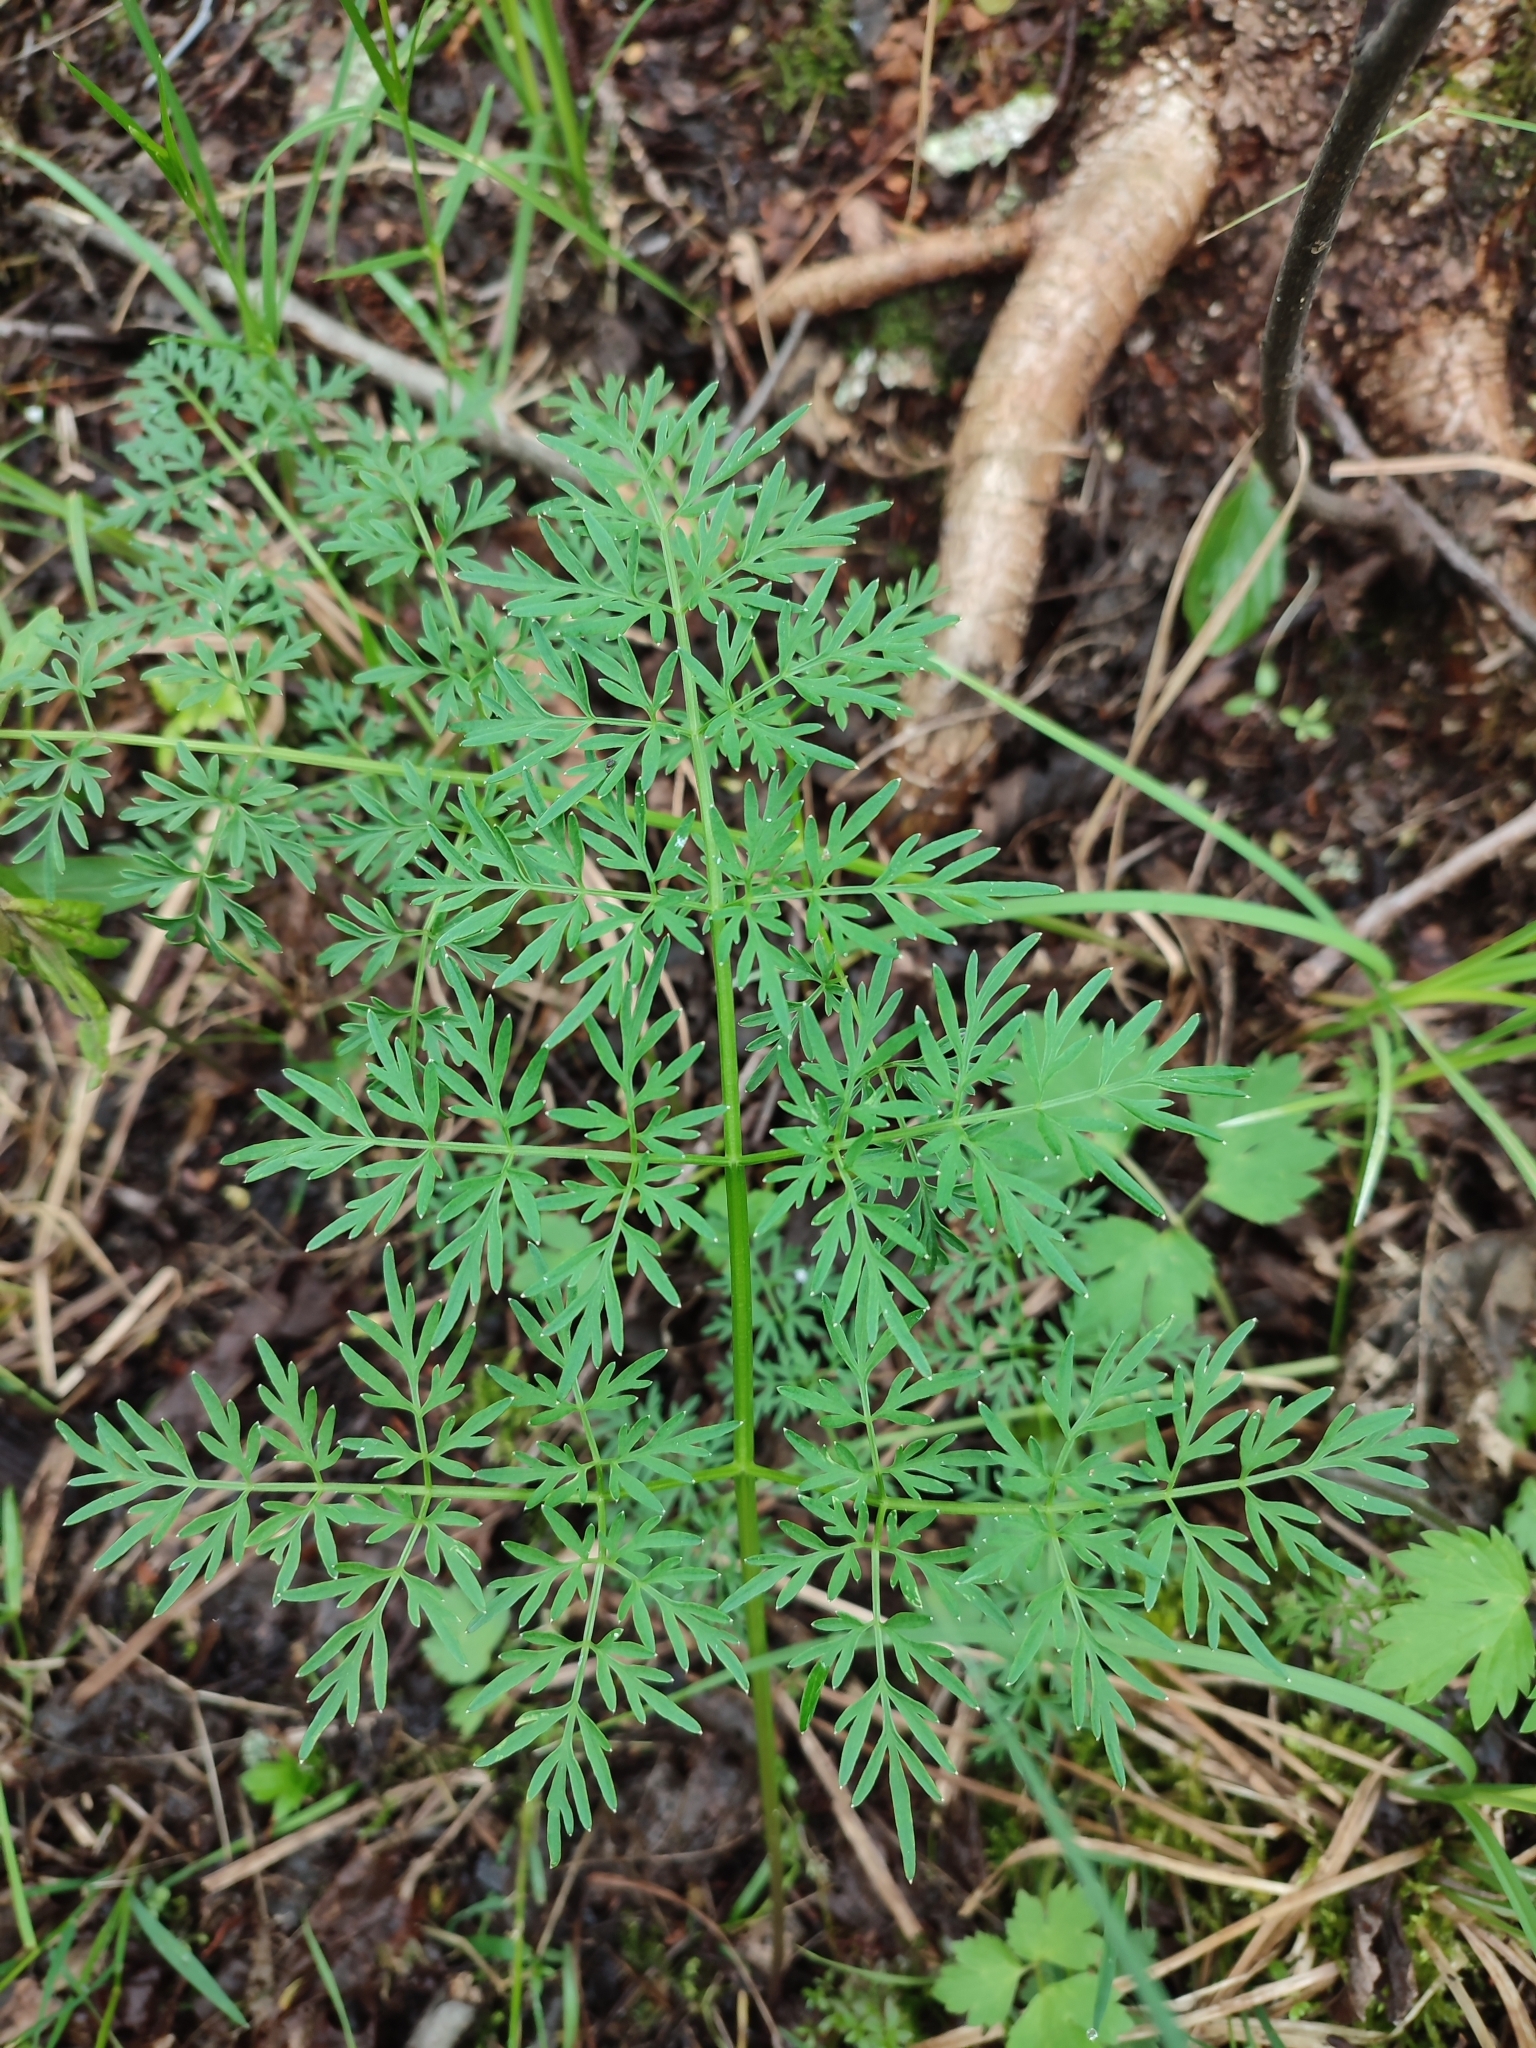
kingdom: Plantae
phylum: Tracheophyta
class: Magnoliopsida
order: Apiales
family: Apiaceae
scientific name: Apiaceae
